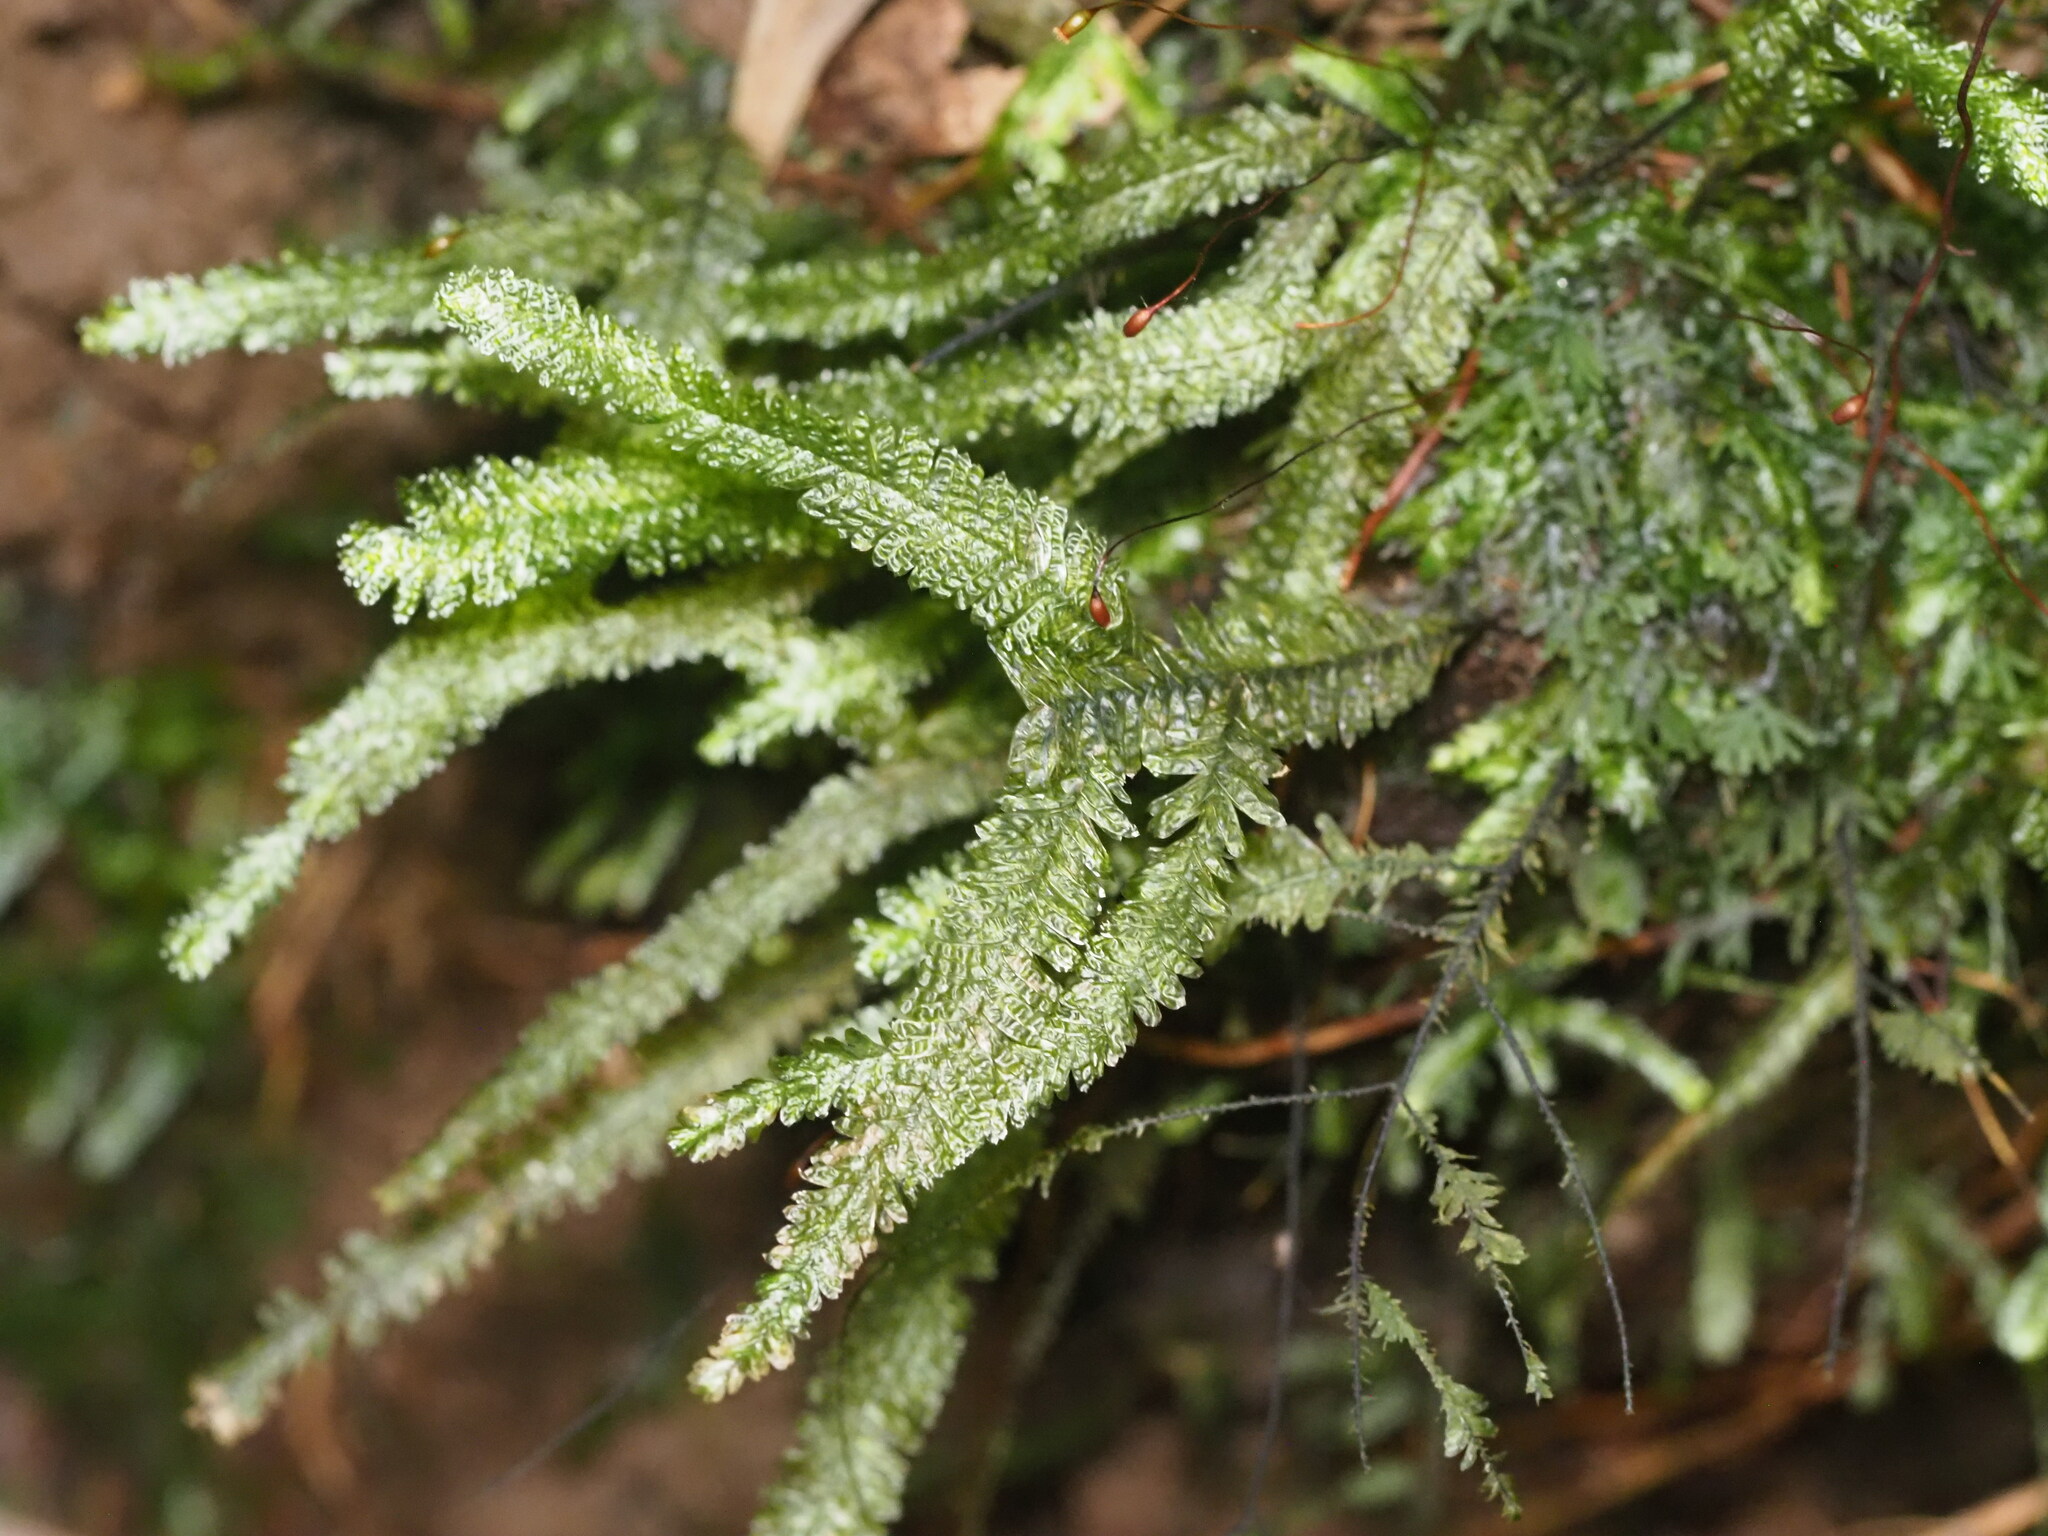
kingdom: Plantae
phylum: Bryophyta
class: Bryopsida
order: Hypnales
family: Neckeraceae
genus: Baldwiniella
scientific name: Baldwiniella kealeensis
